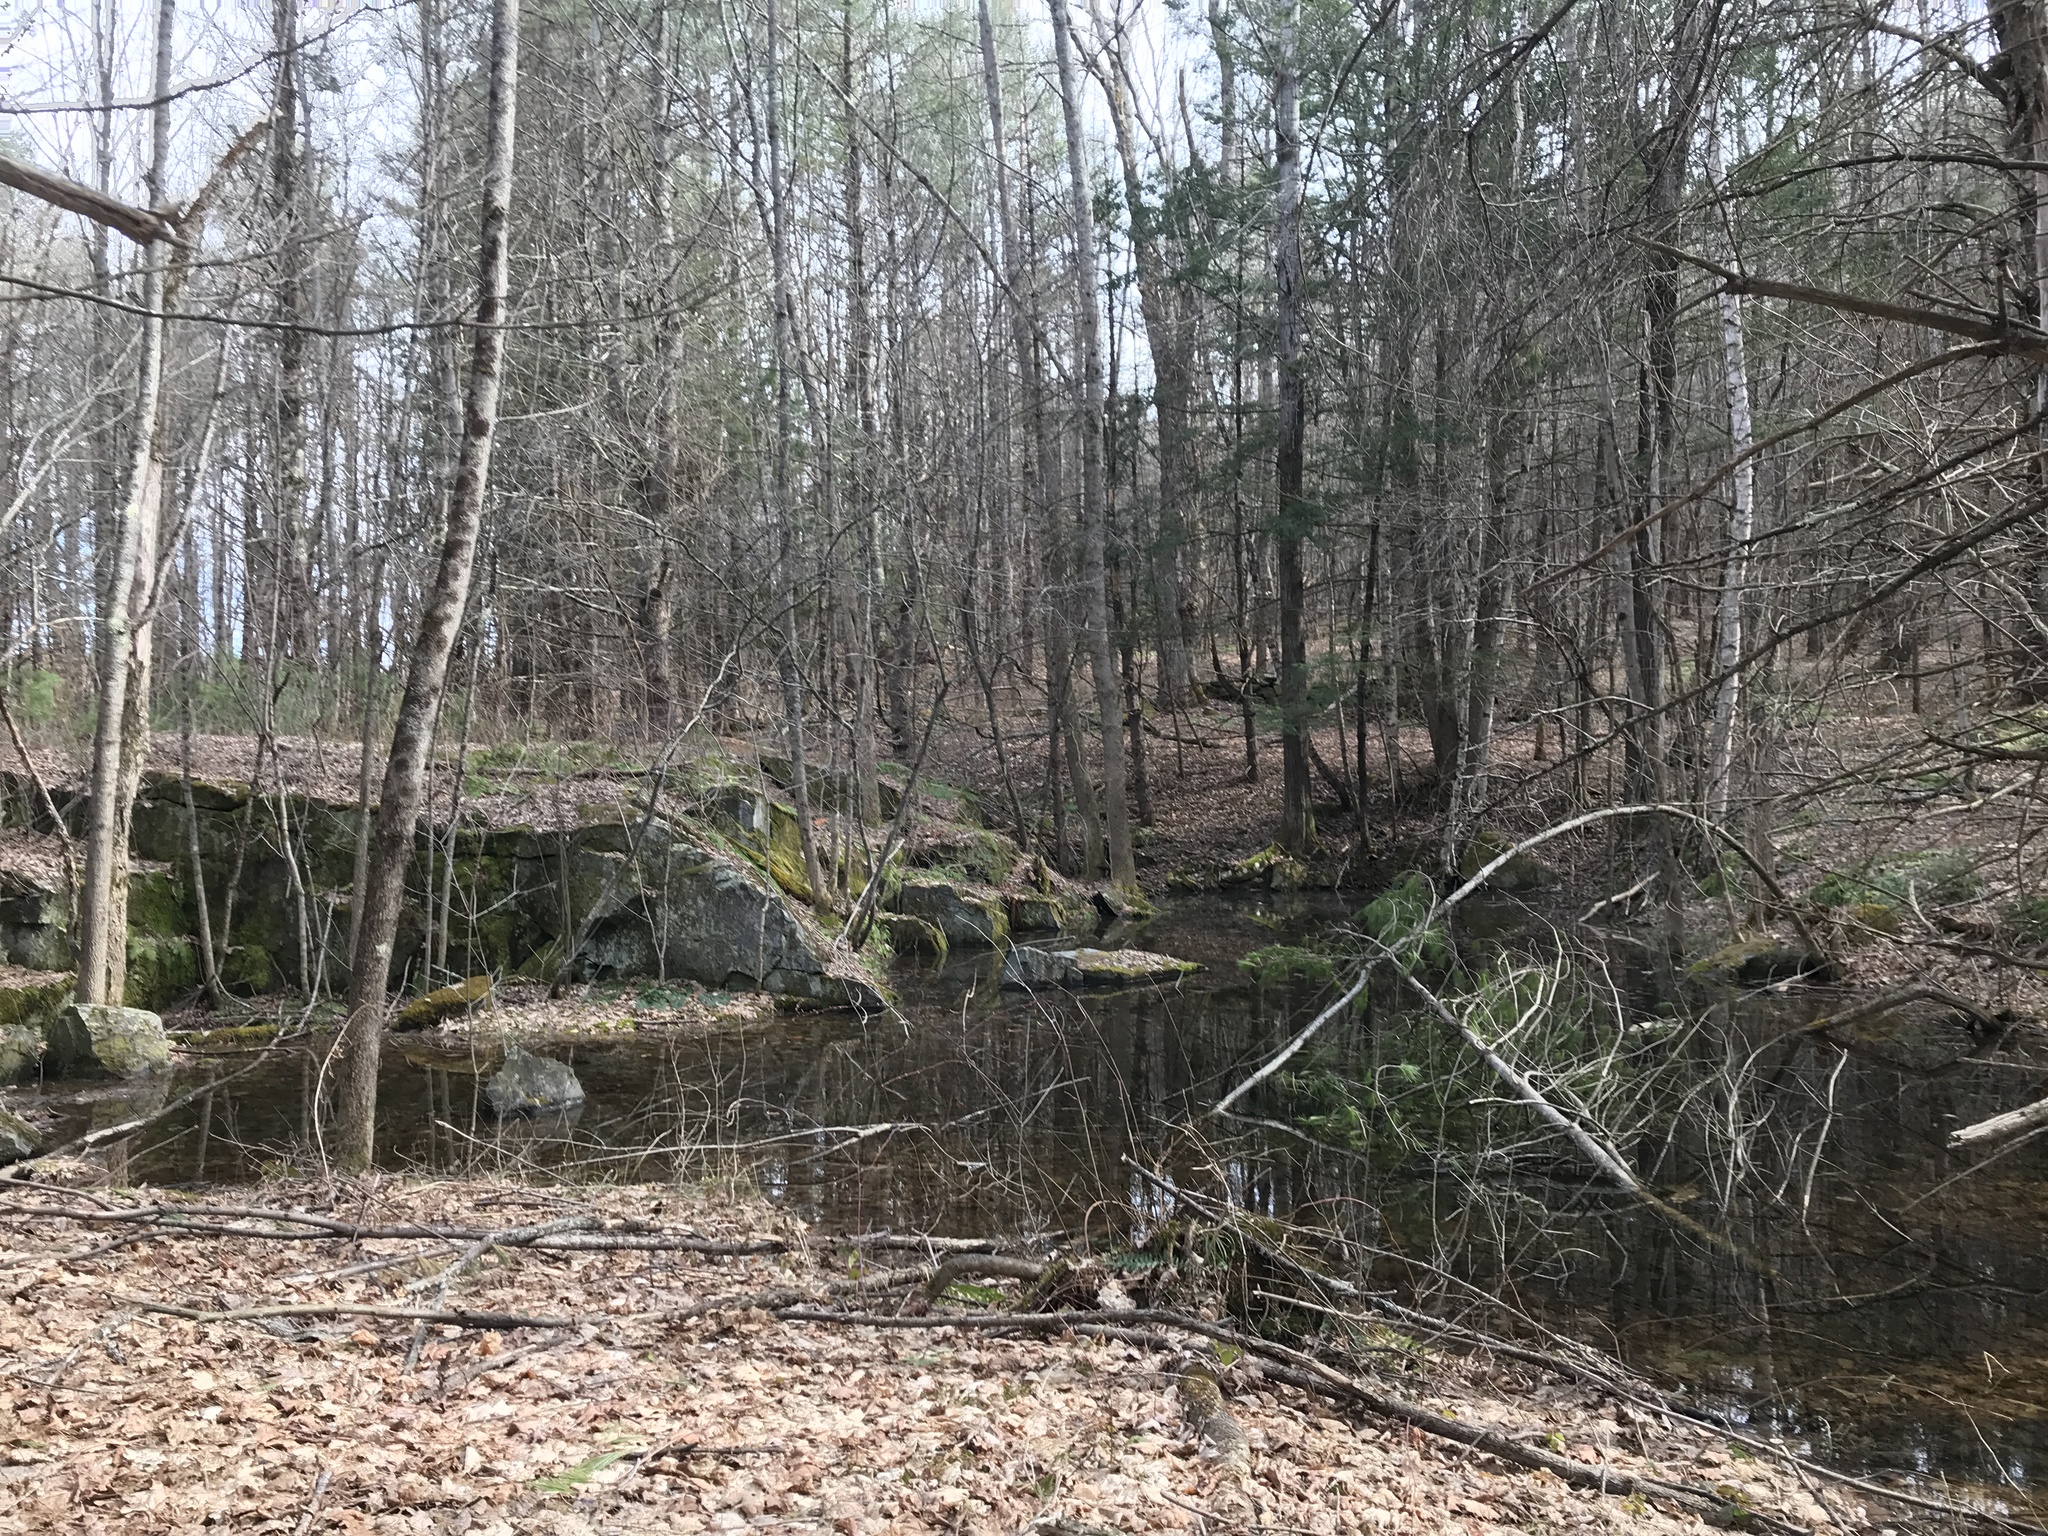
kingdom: Animalia
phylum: Chordata
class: Amphibia
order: Anura
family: Ranidae
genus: Lithobates
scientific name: Lithobates sylvaticus
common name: Wood frog
